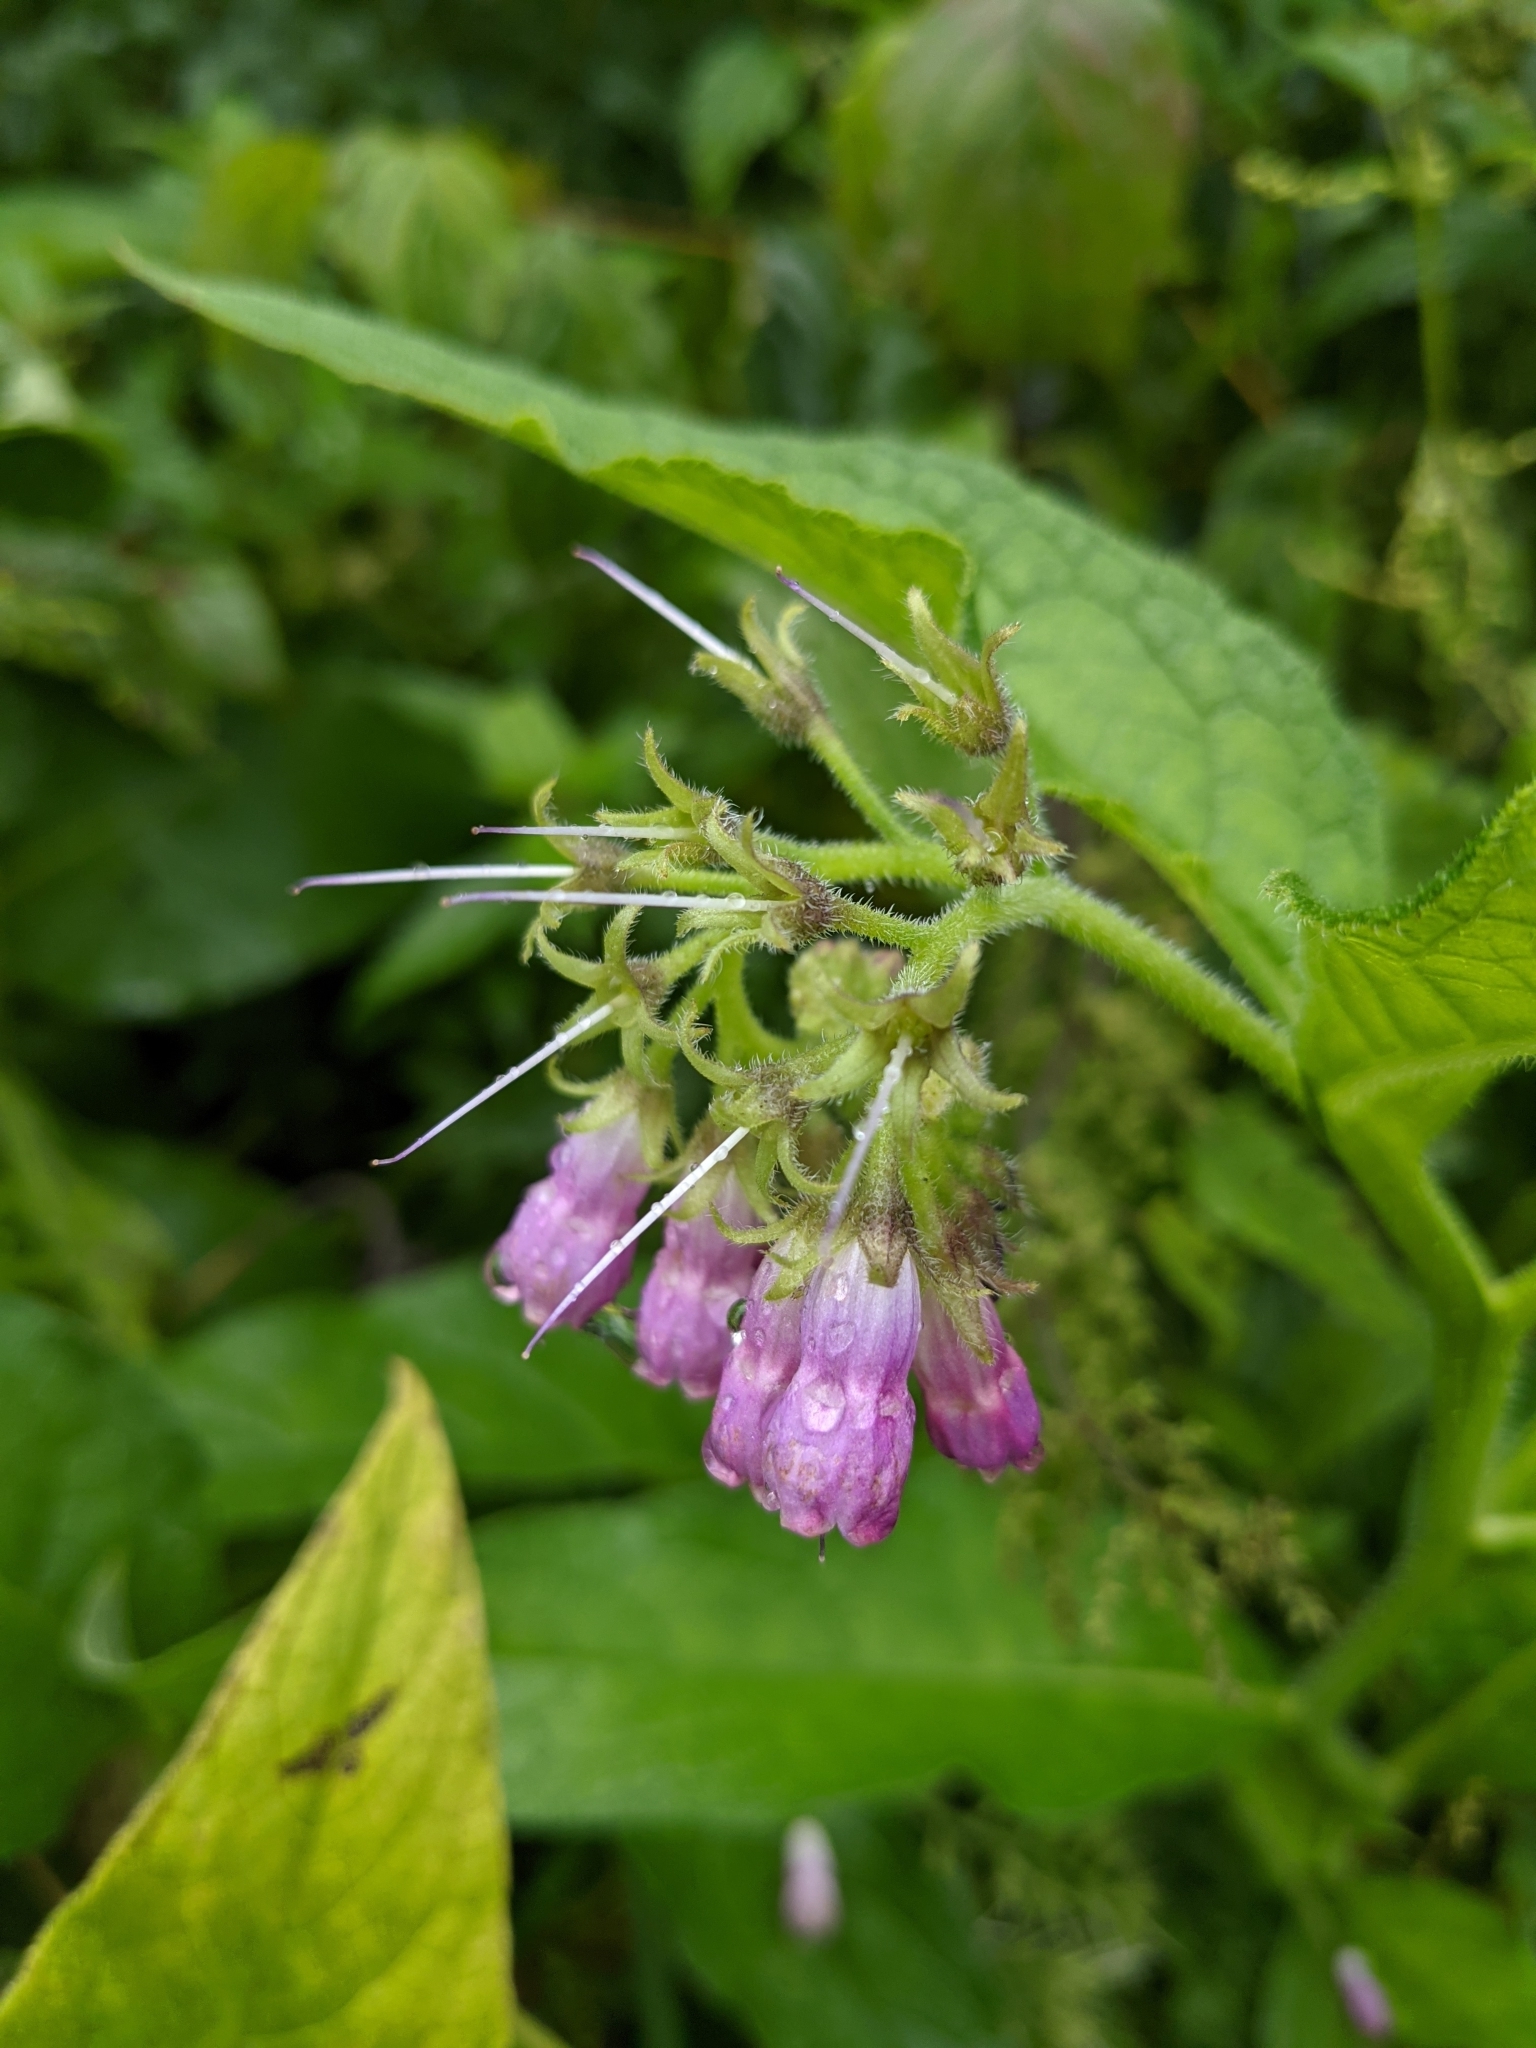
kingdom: Plantae
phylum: Tracheophyta
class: Magnoliopsida
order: Boraginales
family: Boraginaceae
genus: Symphytum
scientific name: Symphytum officinale
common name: Common comfrey
